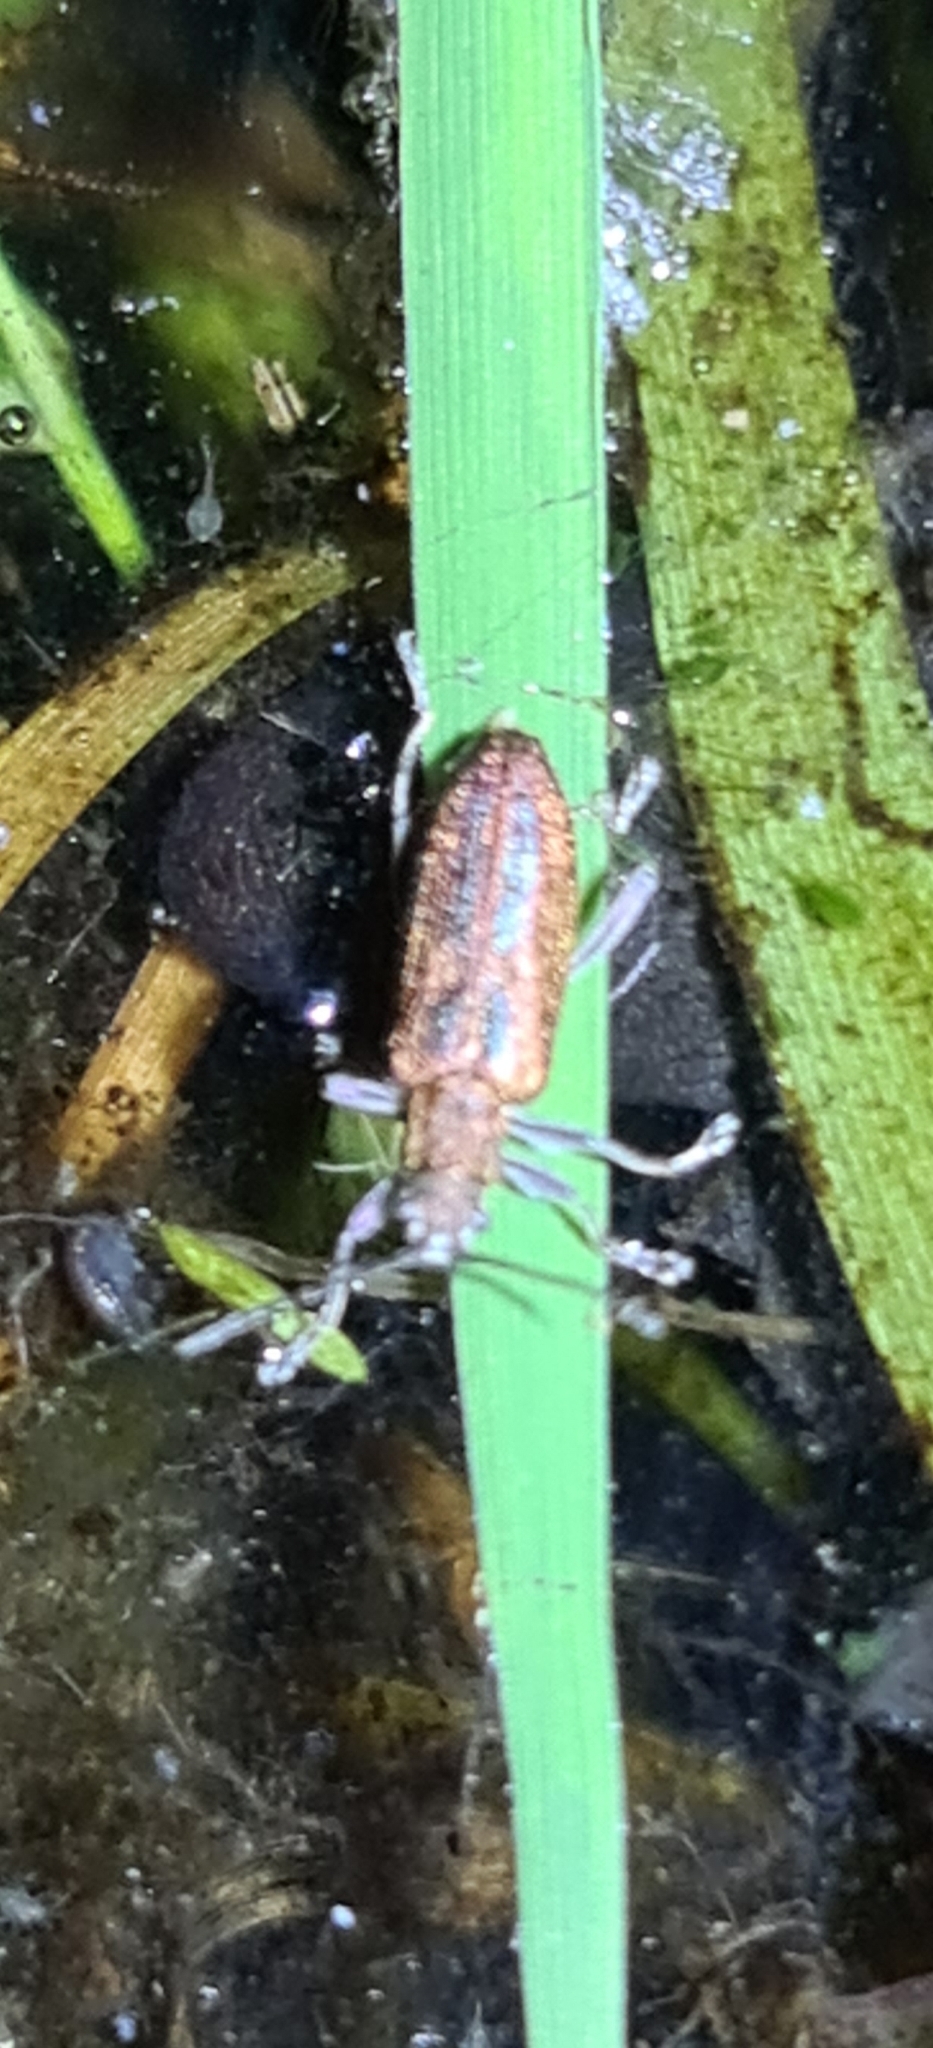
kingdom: Animalia
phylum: Arthropoda
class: Insecta
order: Coleoptera
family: Chrysomelidae
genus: Donacia
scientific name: Donacia vulgaris
